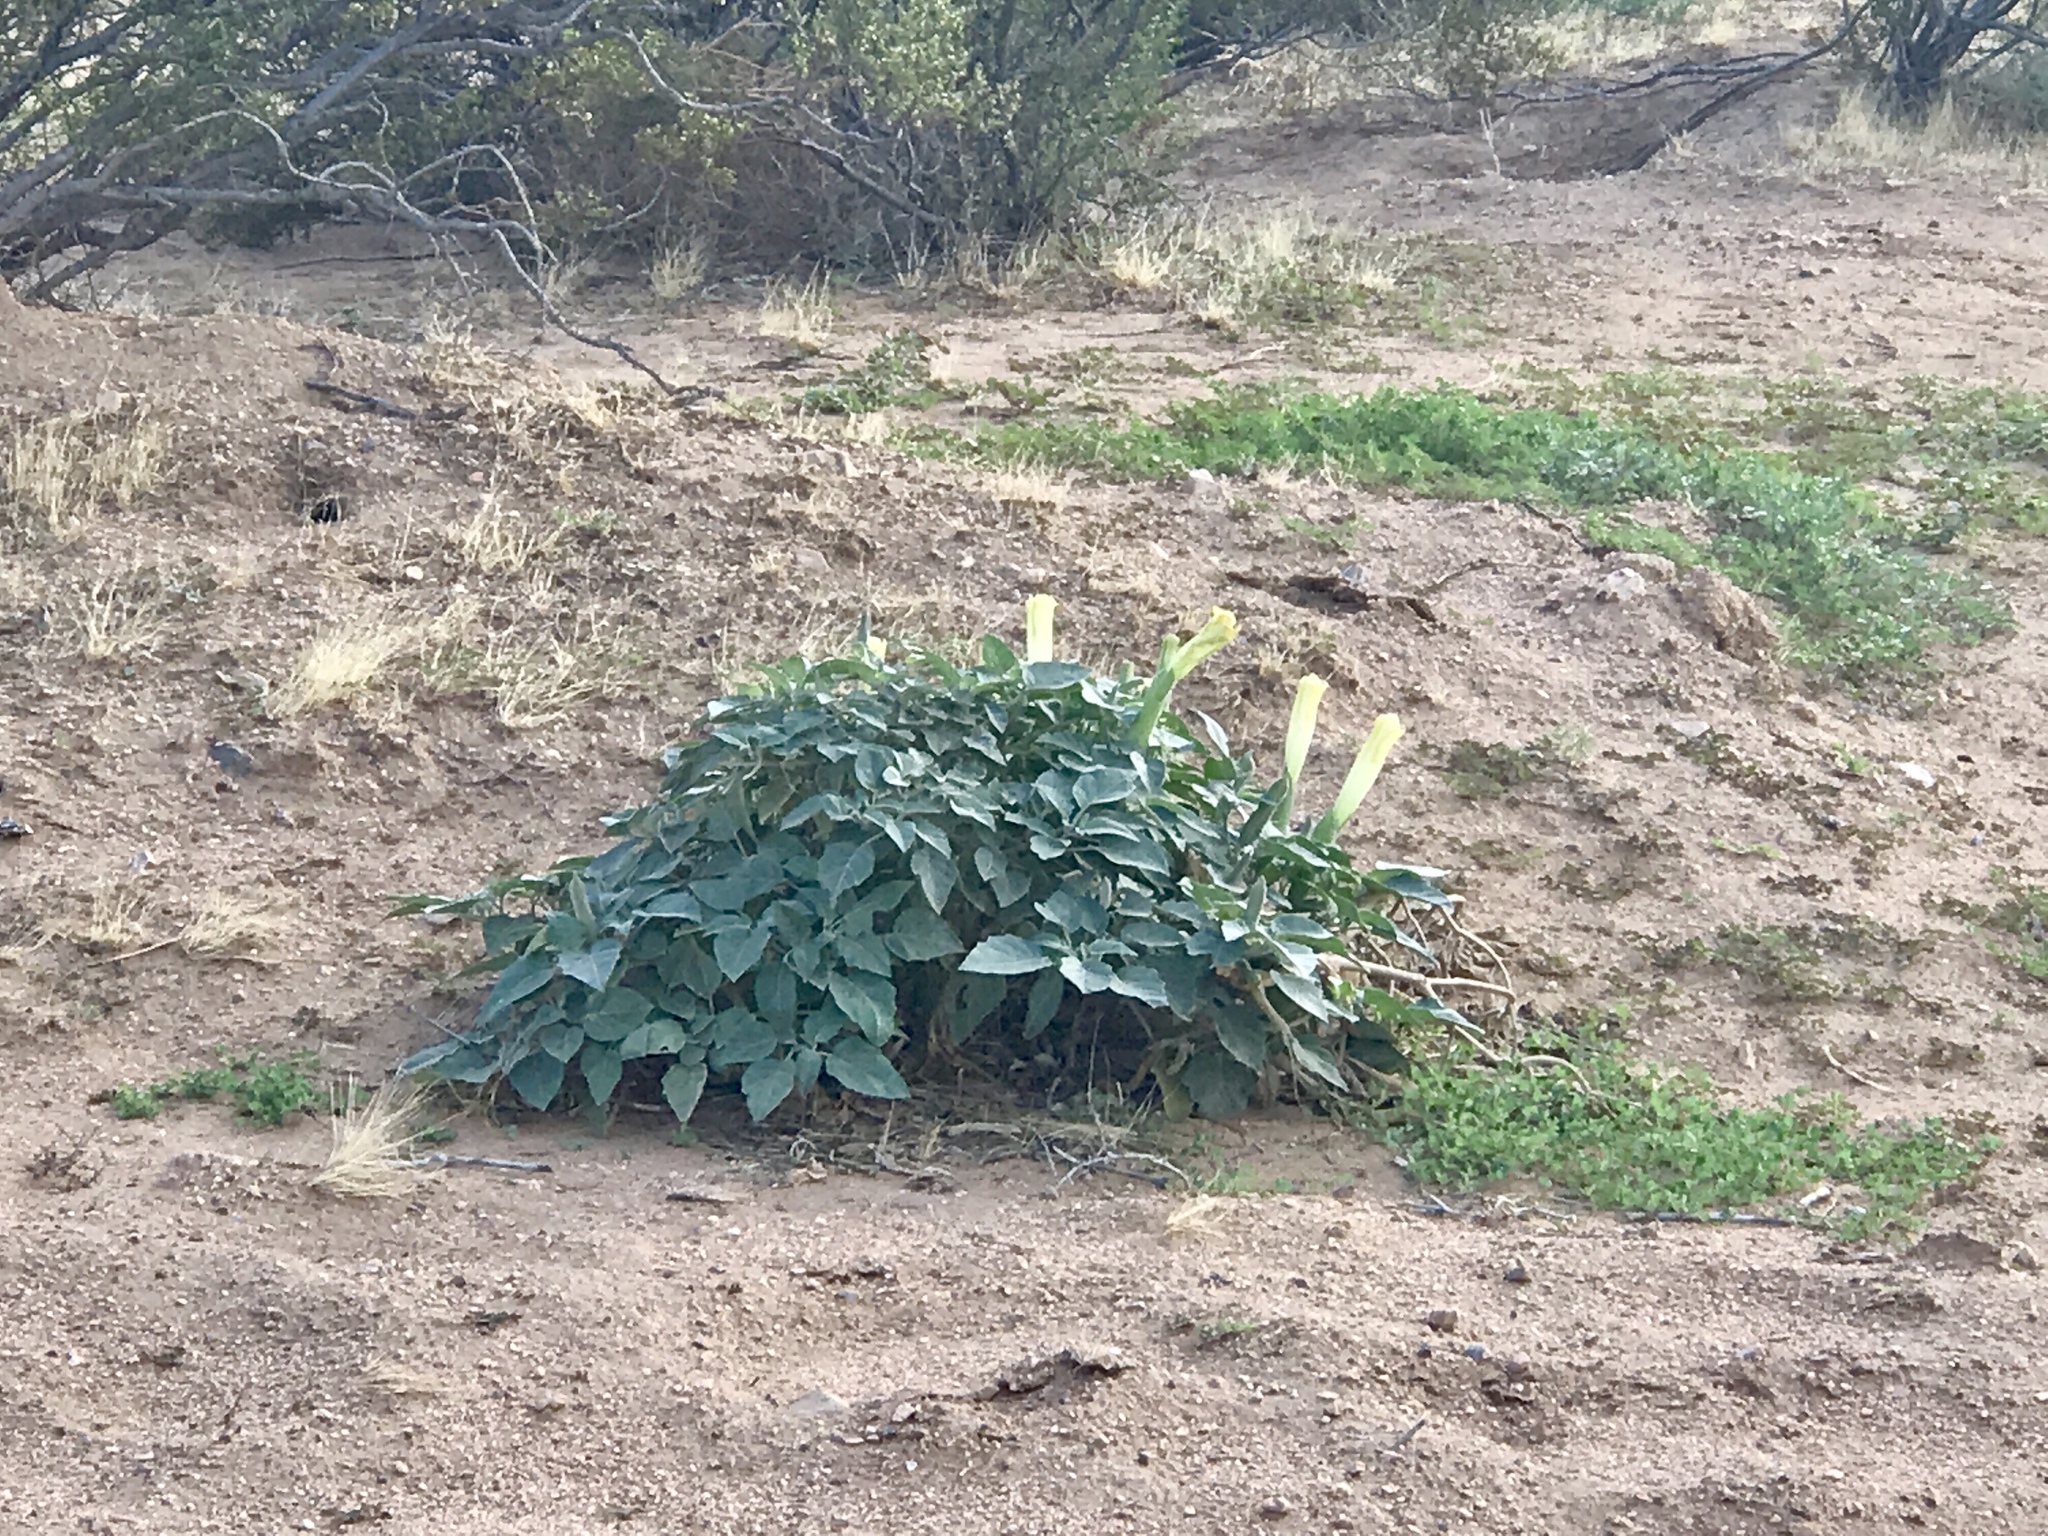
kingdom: Plantae
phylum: Tracheophyta
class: Magnoliopsida
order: Solanales
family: Solanaceae
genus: Datura
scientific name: Datura wrightii
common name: Sacred thorn-apple
